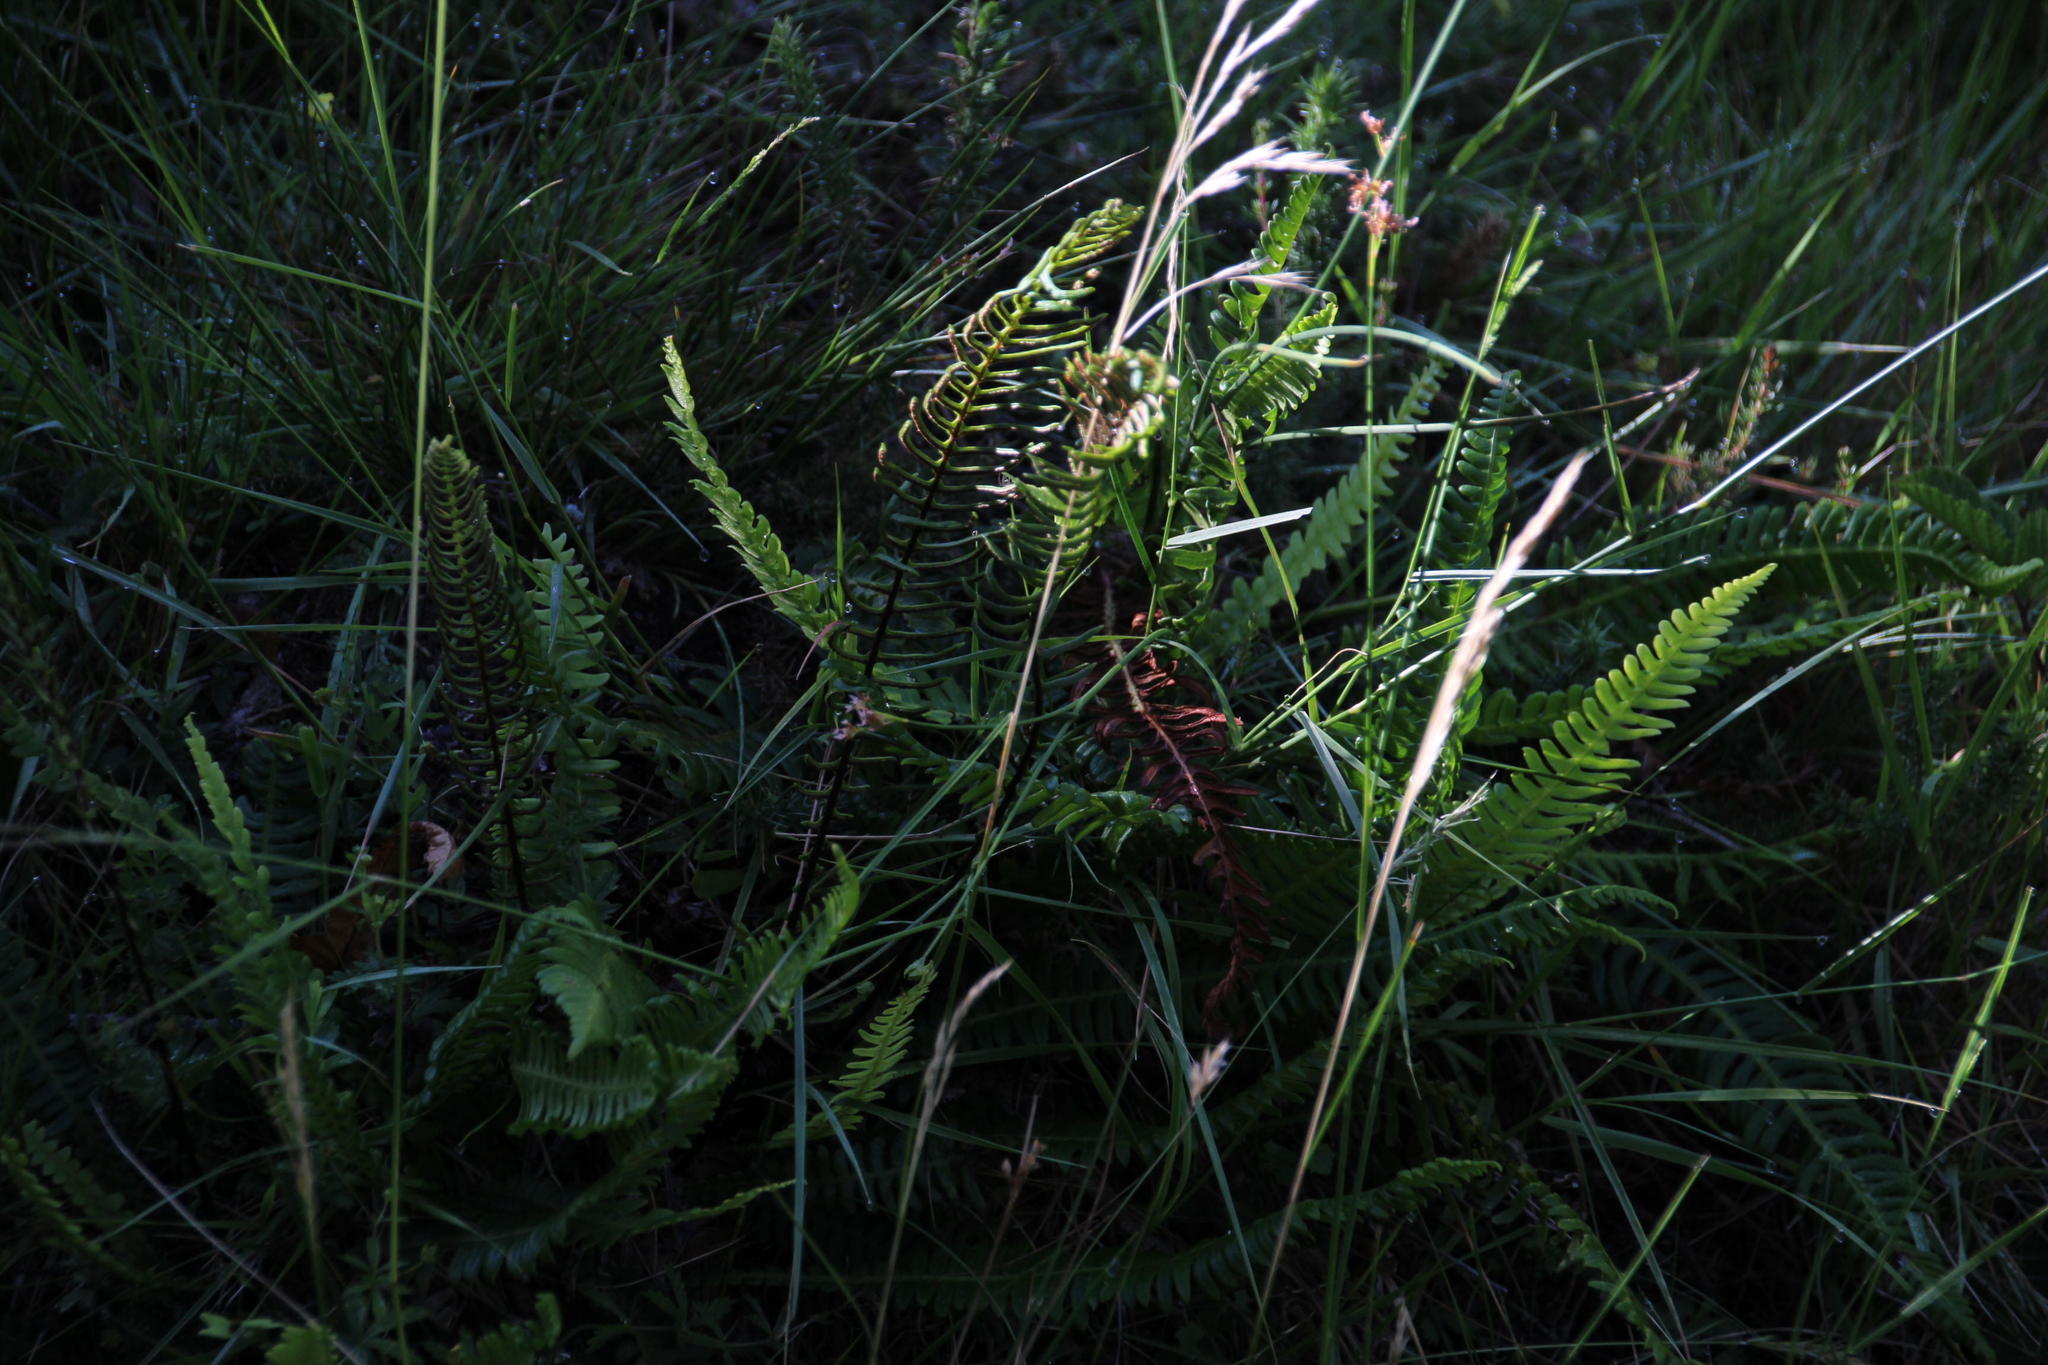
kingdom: Plantae
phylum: Tracheophyta
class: Polypodiopsida
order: Polypodiales
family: Blechnaceae
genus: Struthiopteris
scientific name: Struthiopteris spicant
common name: Deer fern
